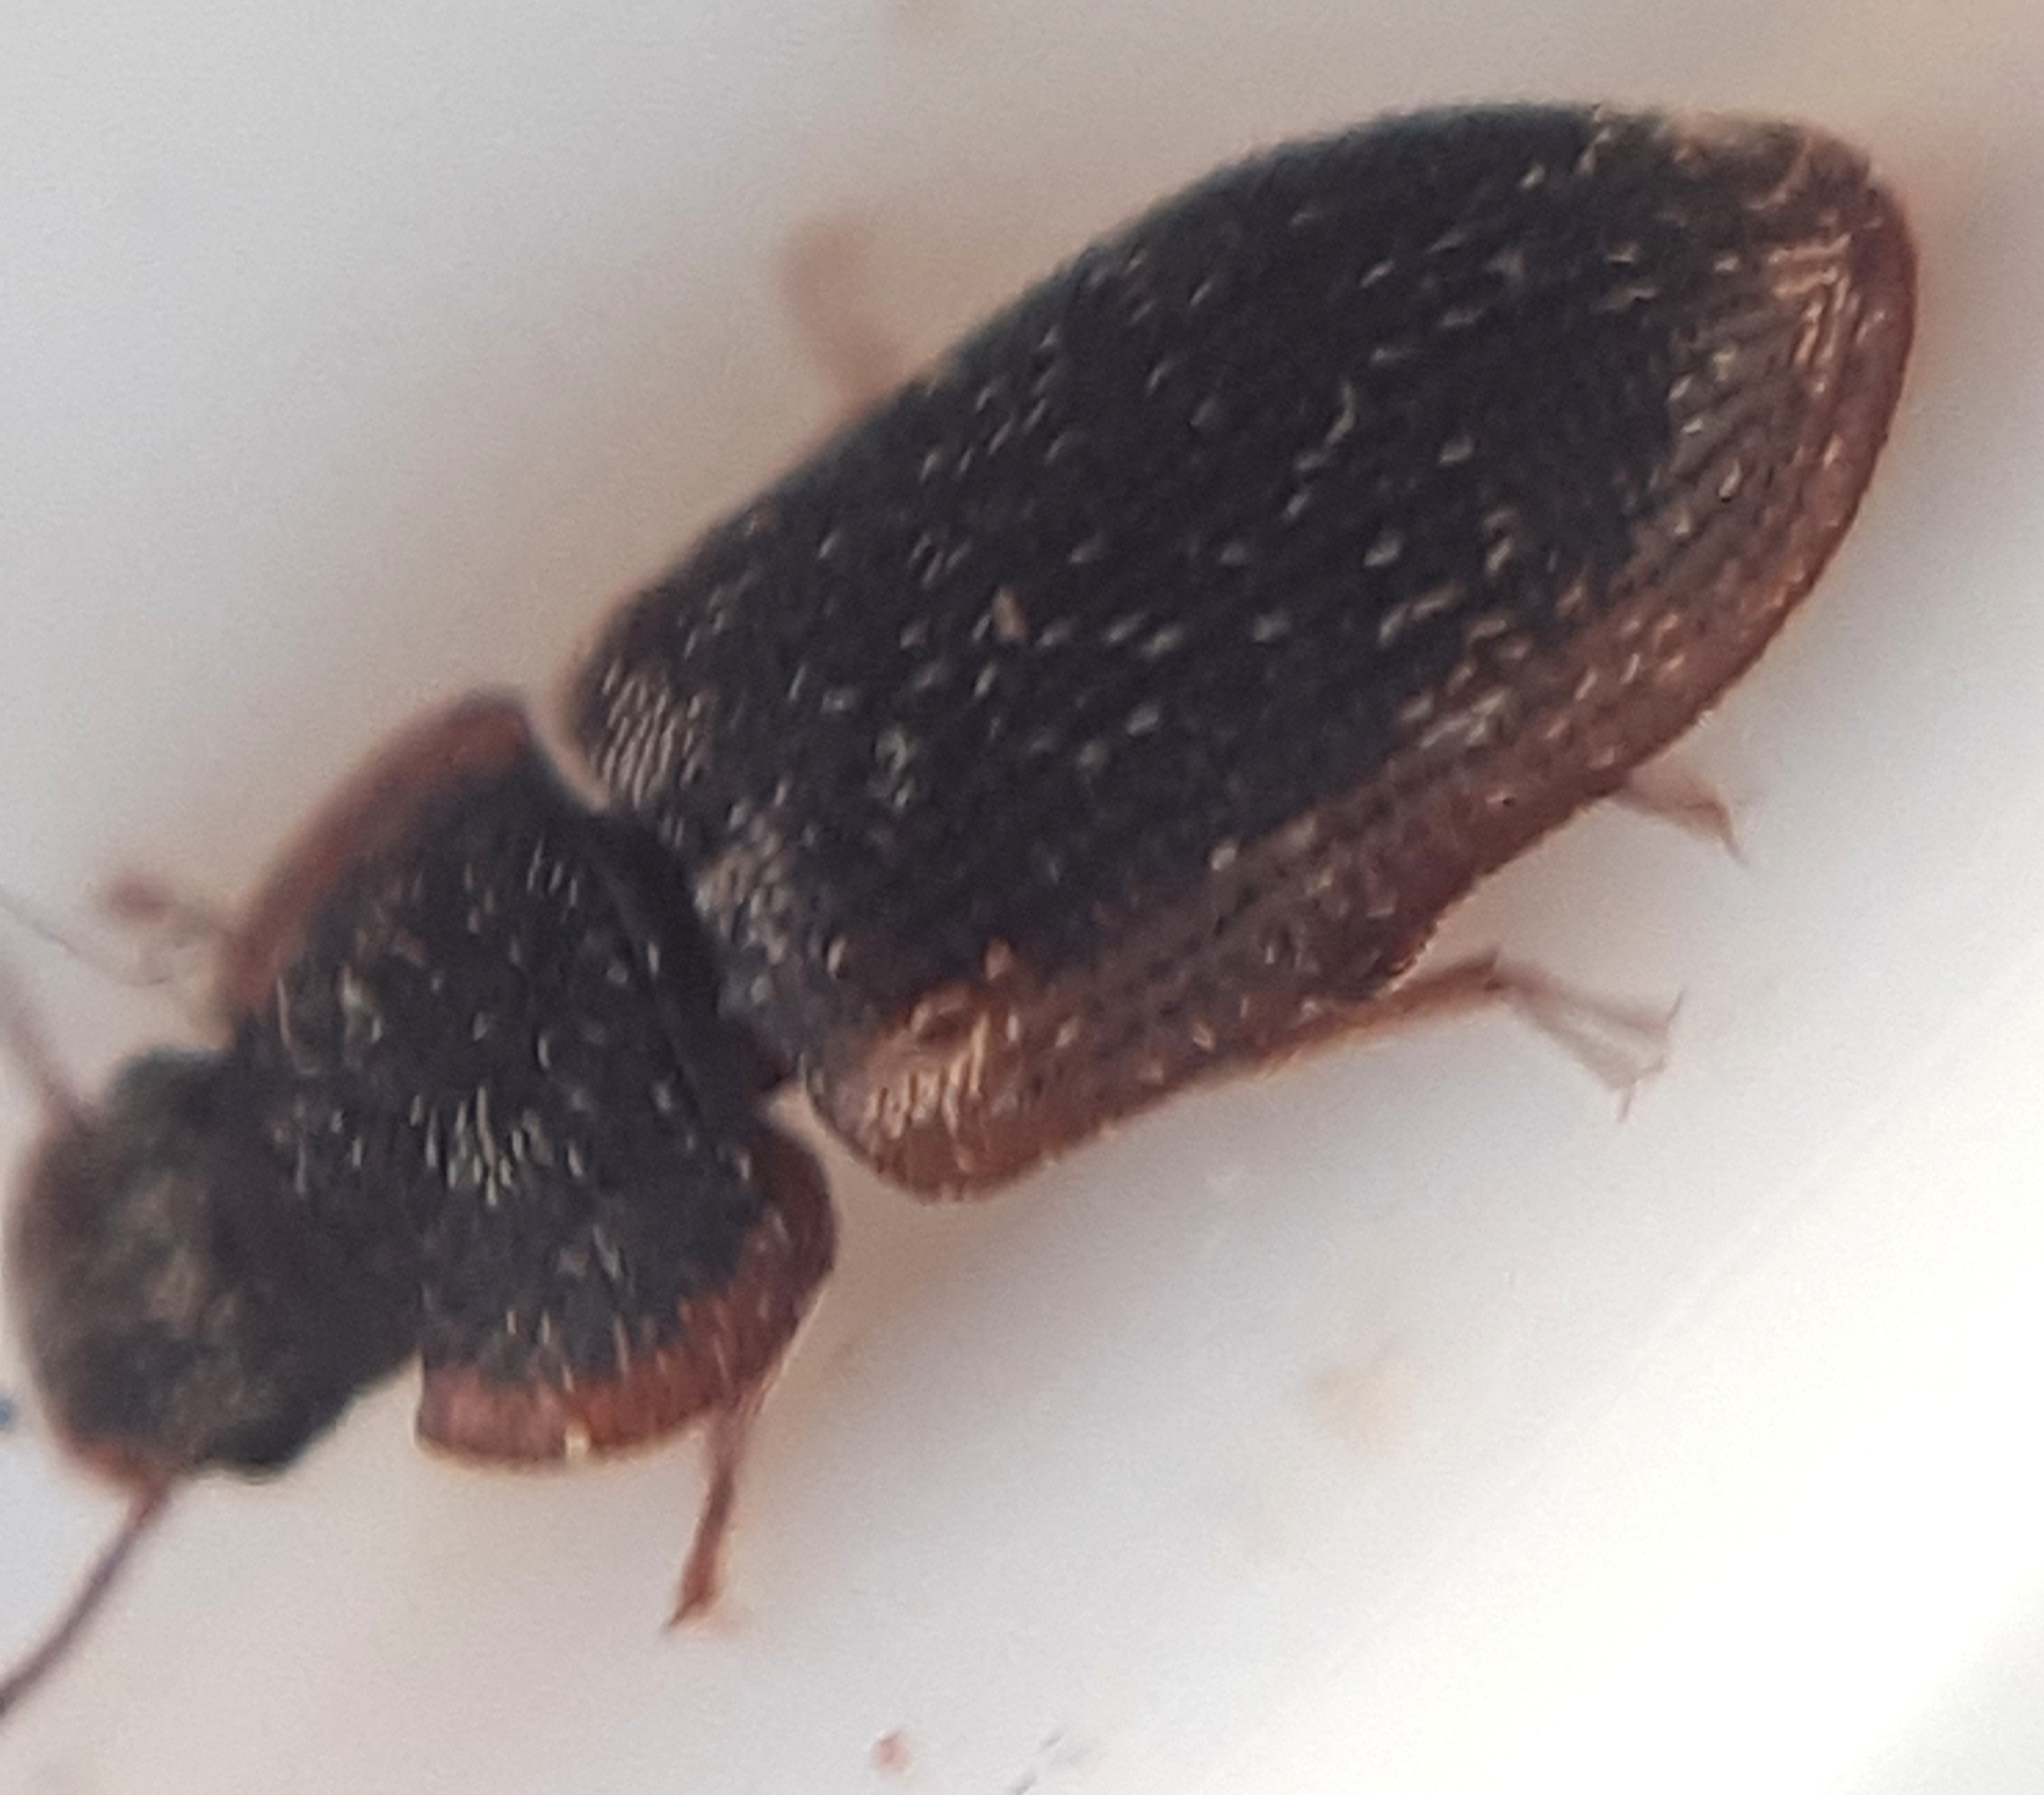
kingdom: Animalia
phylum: Arthropoda
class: Insecta
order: Coleoptera
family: Zopheridae
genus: Colobicus
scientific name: Colobicus hirtus
